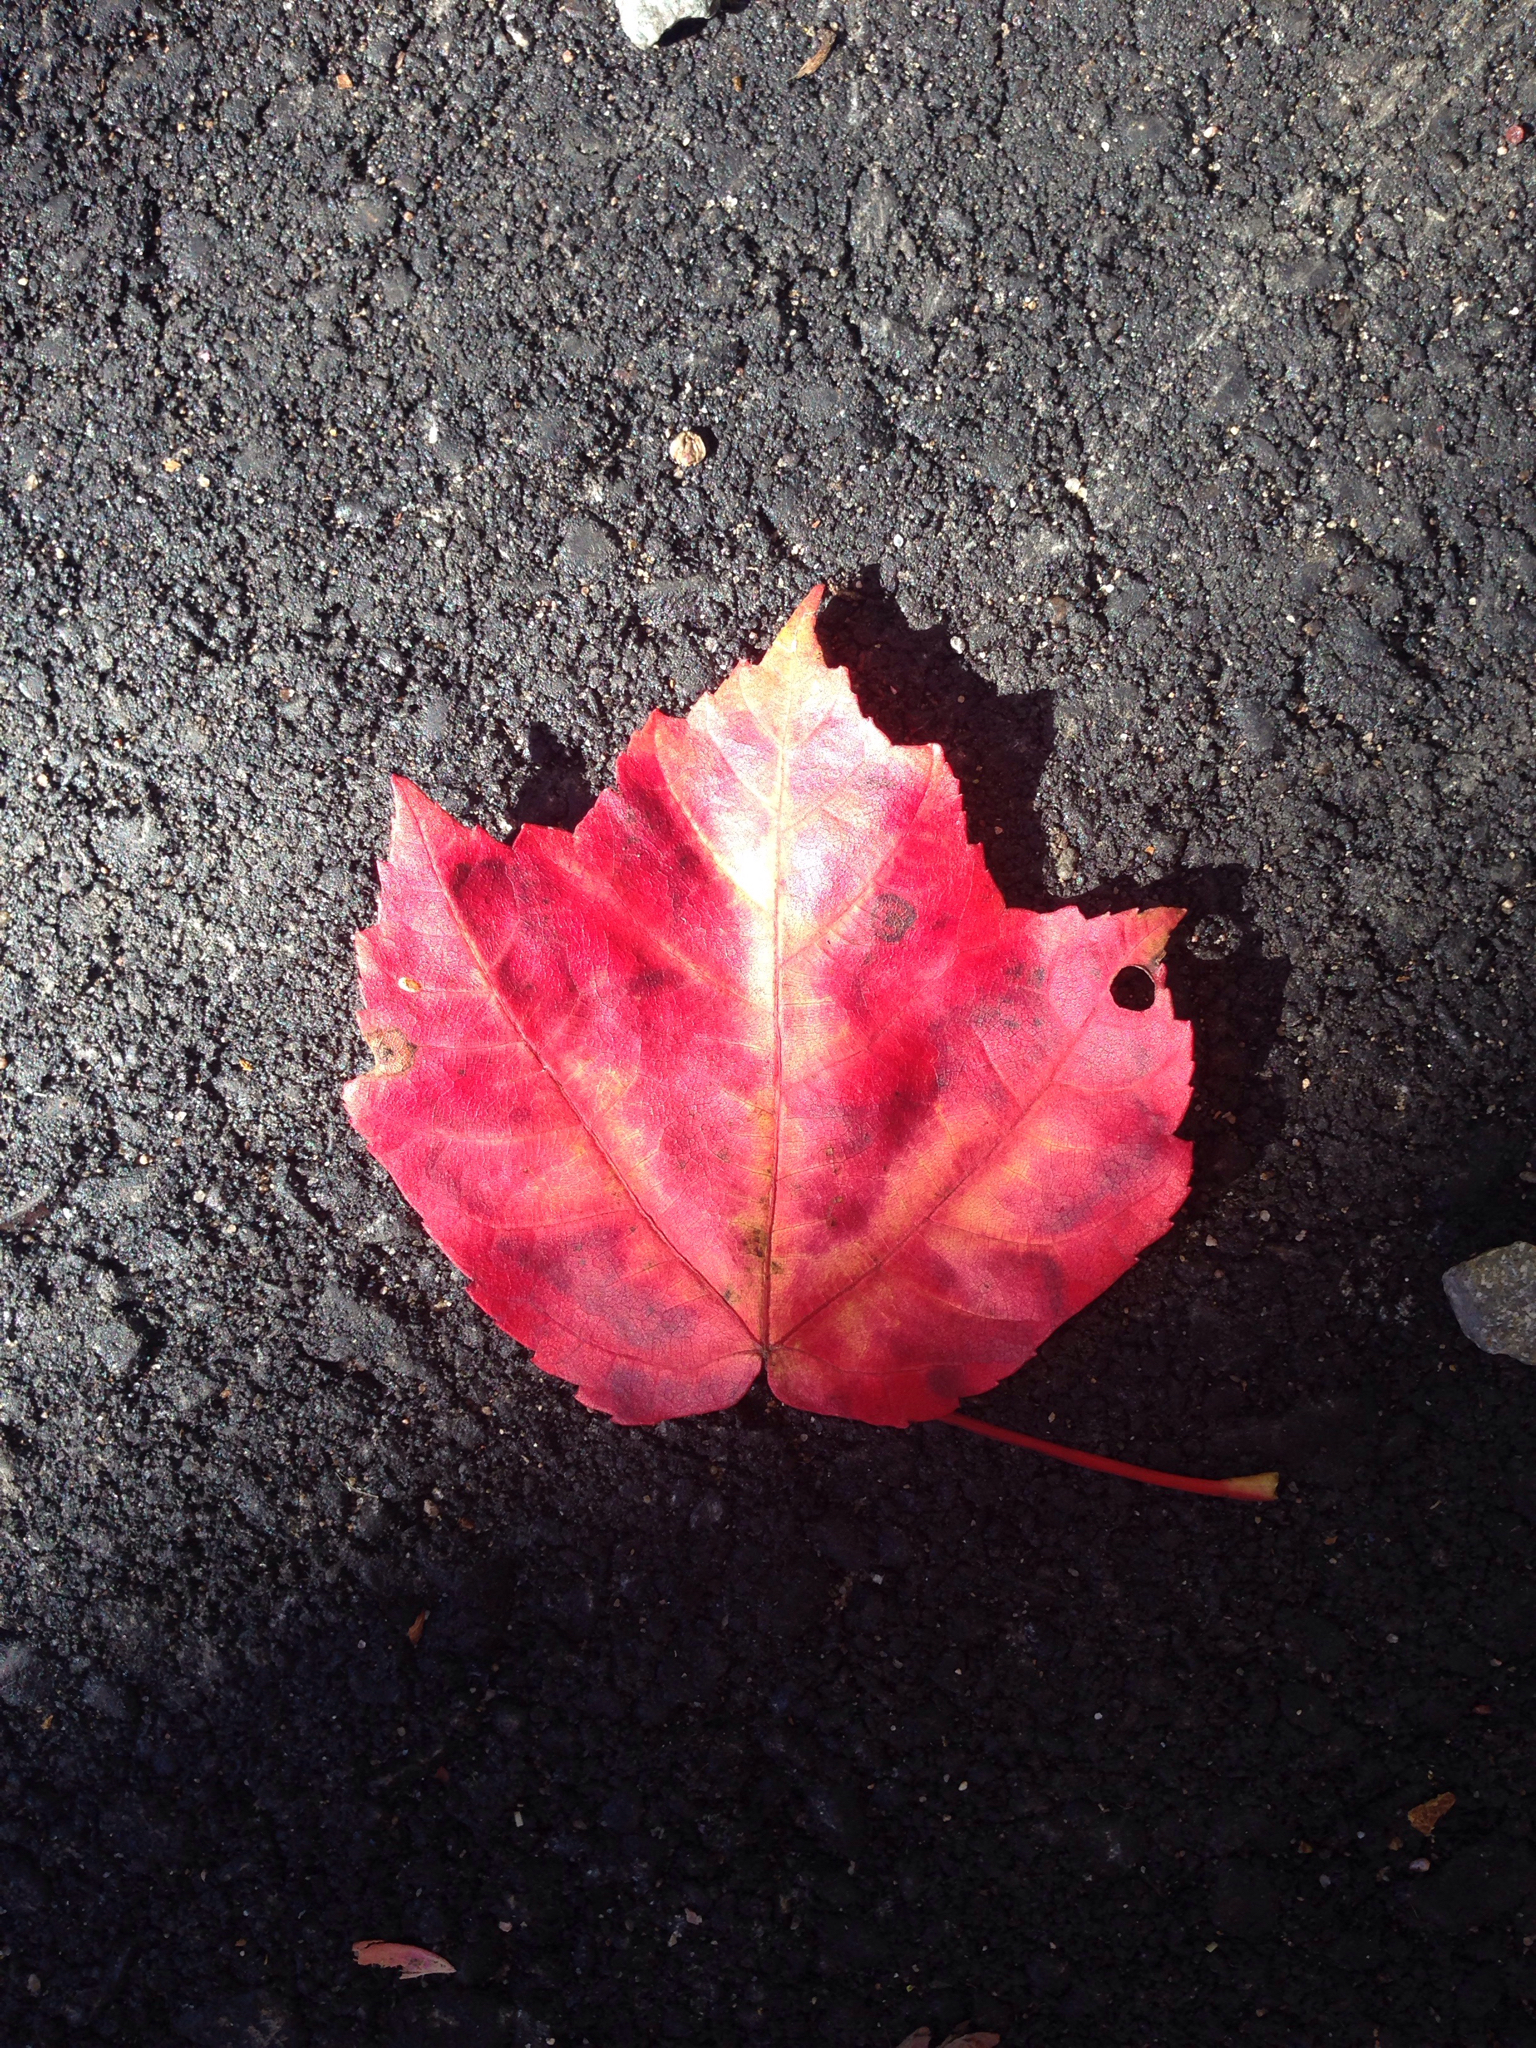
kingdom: Plantae
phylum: Tracheophyta
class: Magnoliopsida
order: Sapindales
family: Sapindaceae
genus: Acer
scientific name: Acer rubrum
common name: Red maple
